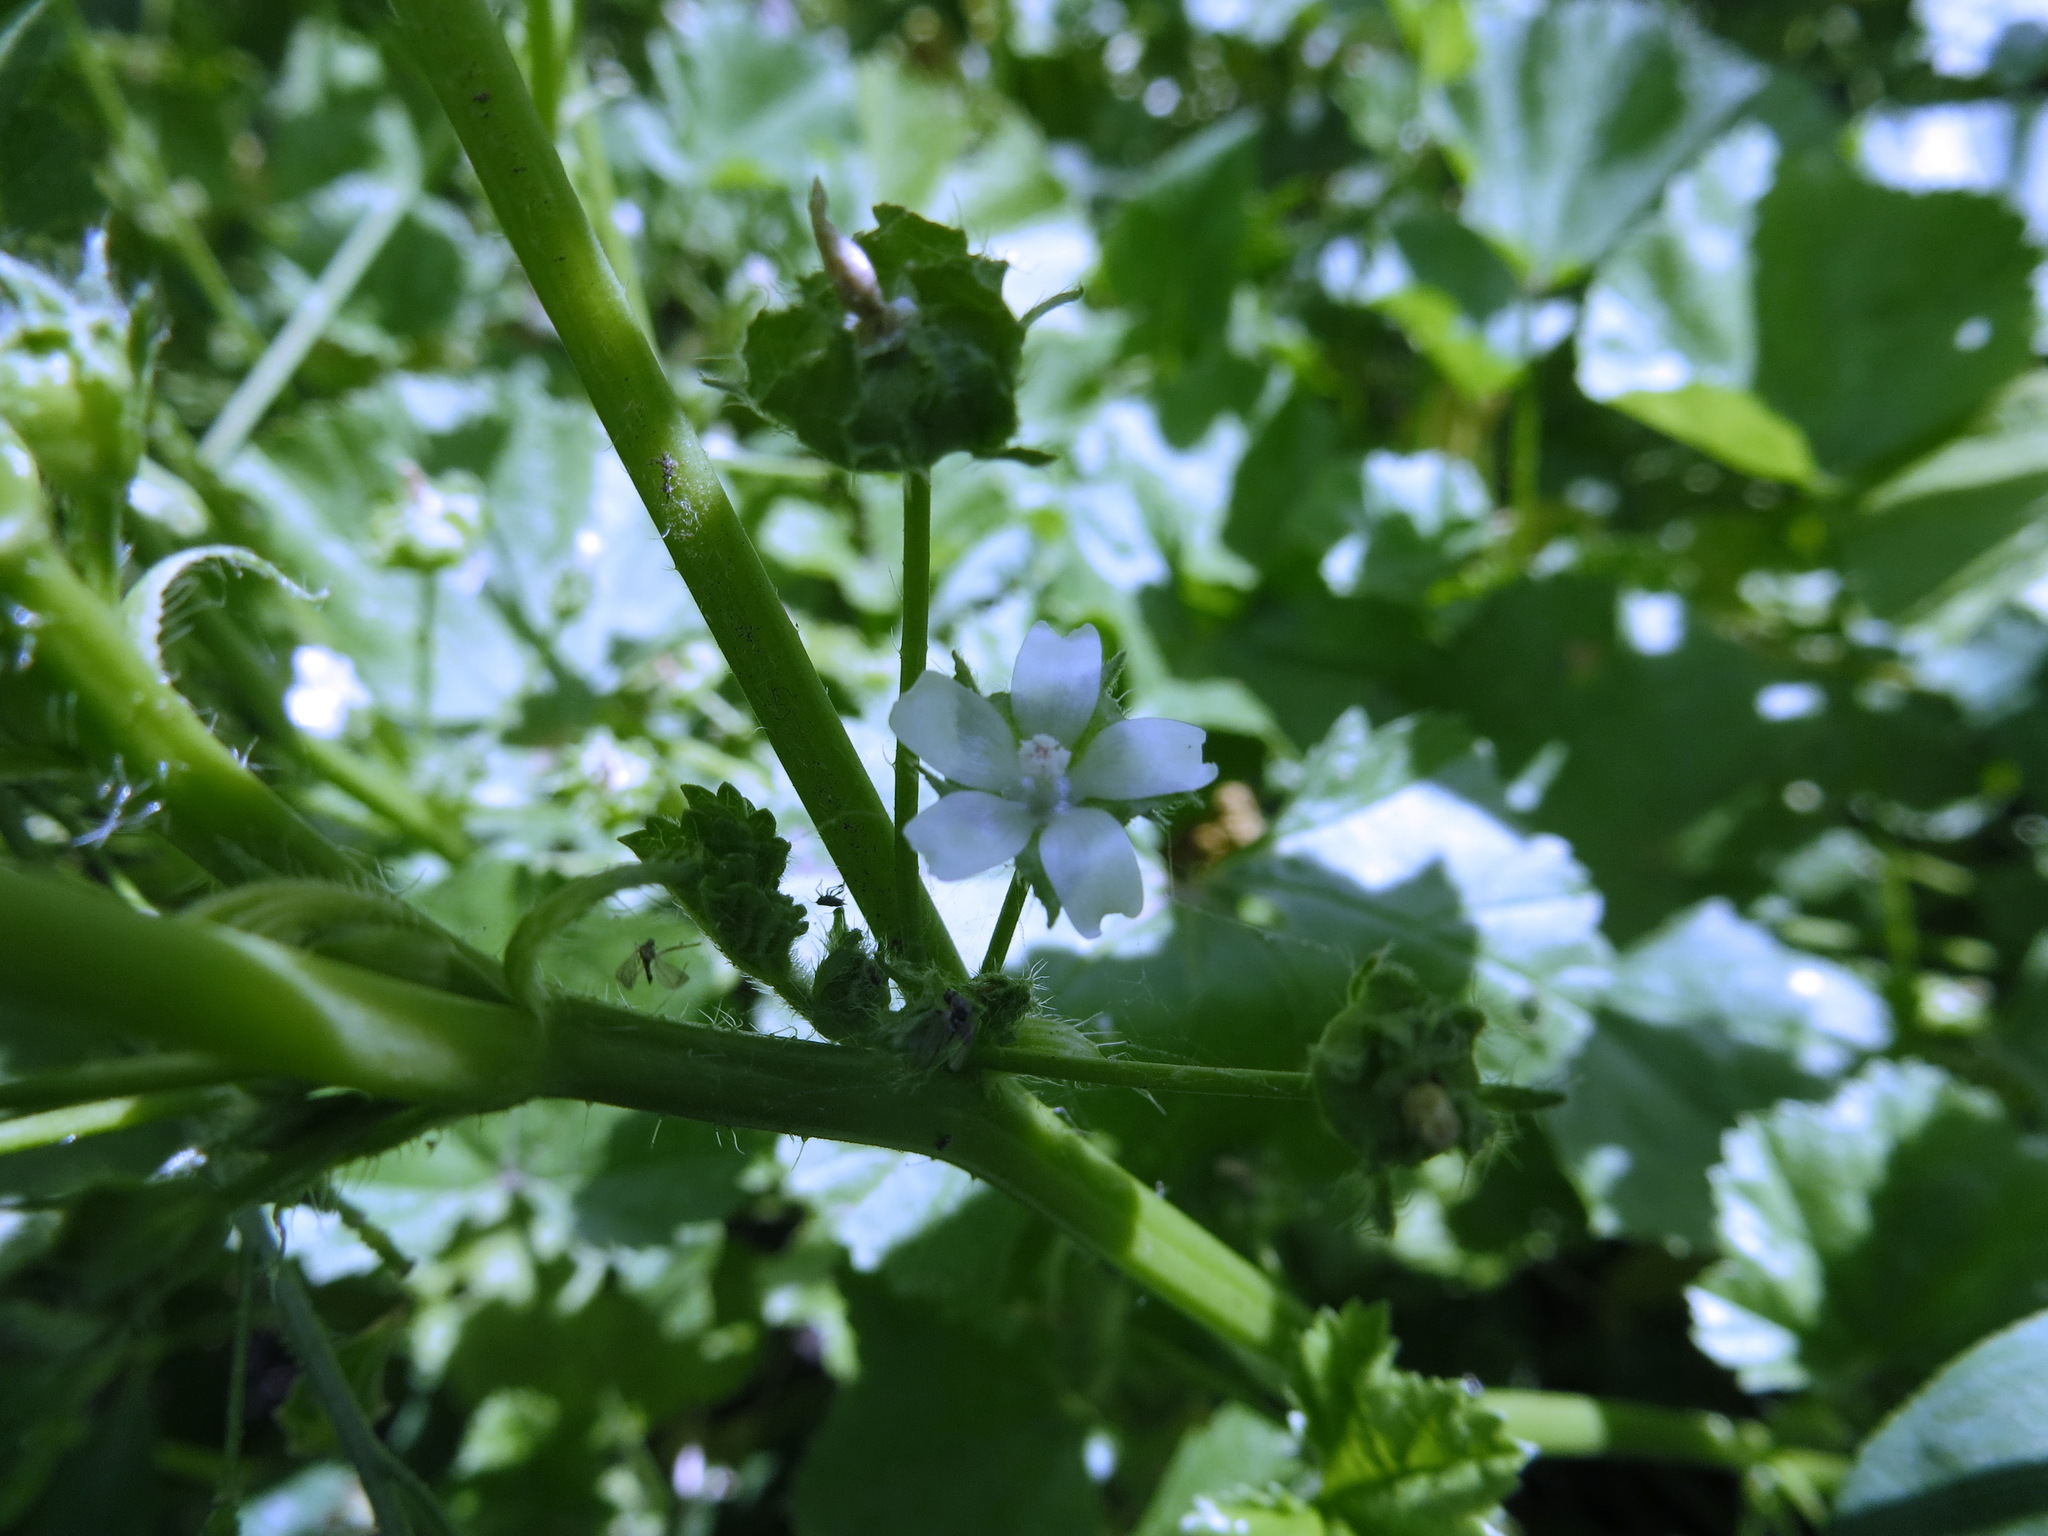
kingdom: Plantae
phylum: Tracheophyta
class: Magnoliopsida
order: Malvales
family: Malvaceae
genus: Malva
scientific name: Malva pusilla
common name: Small mallow
